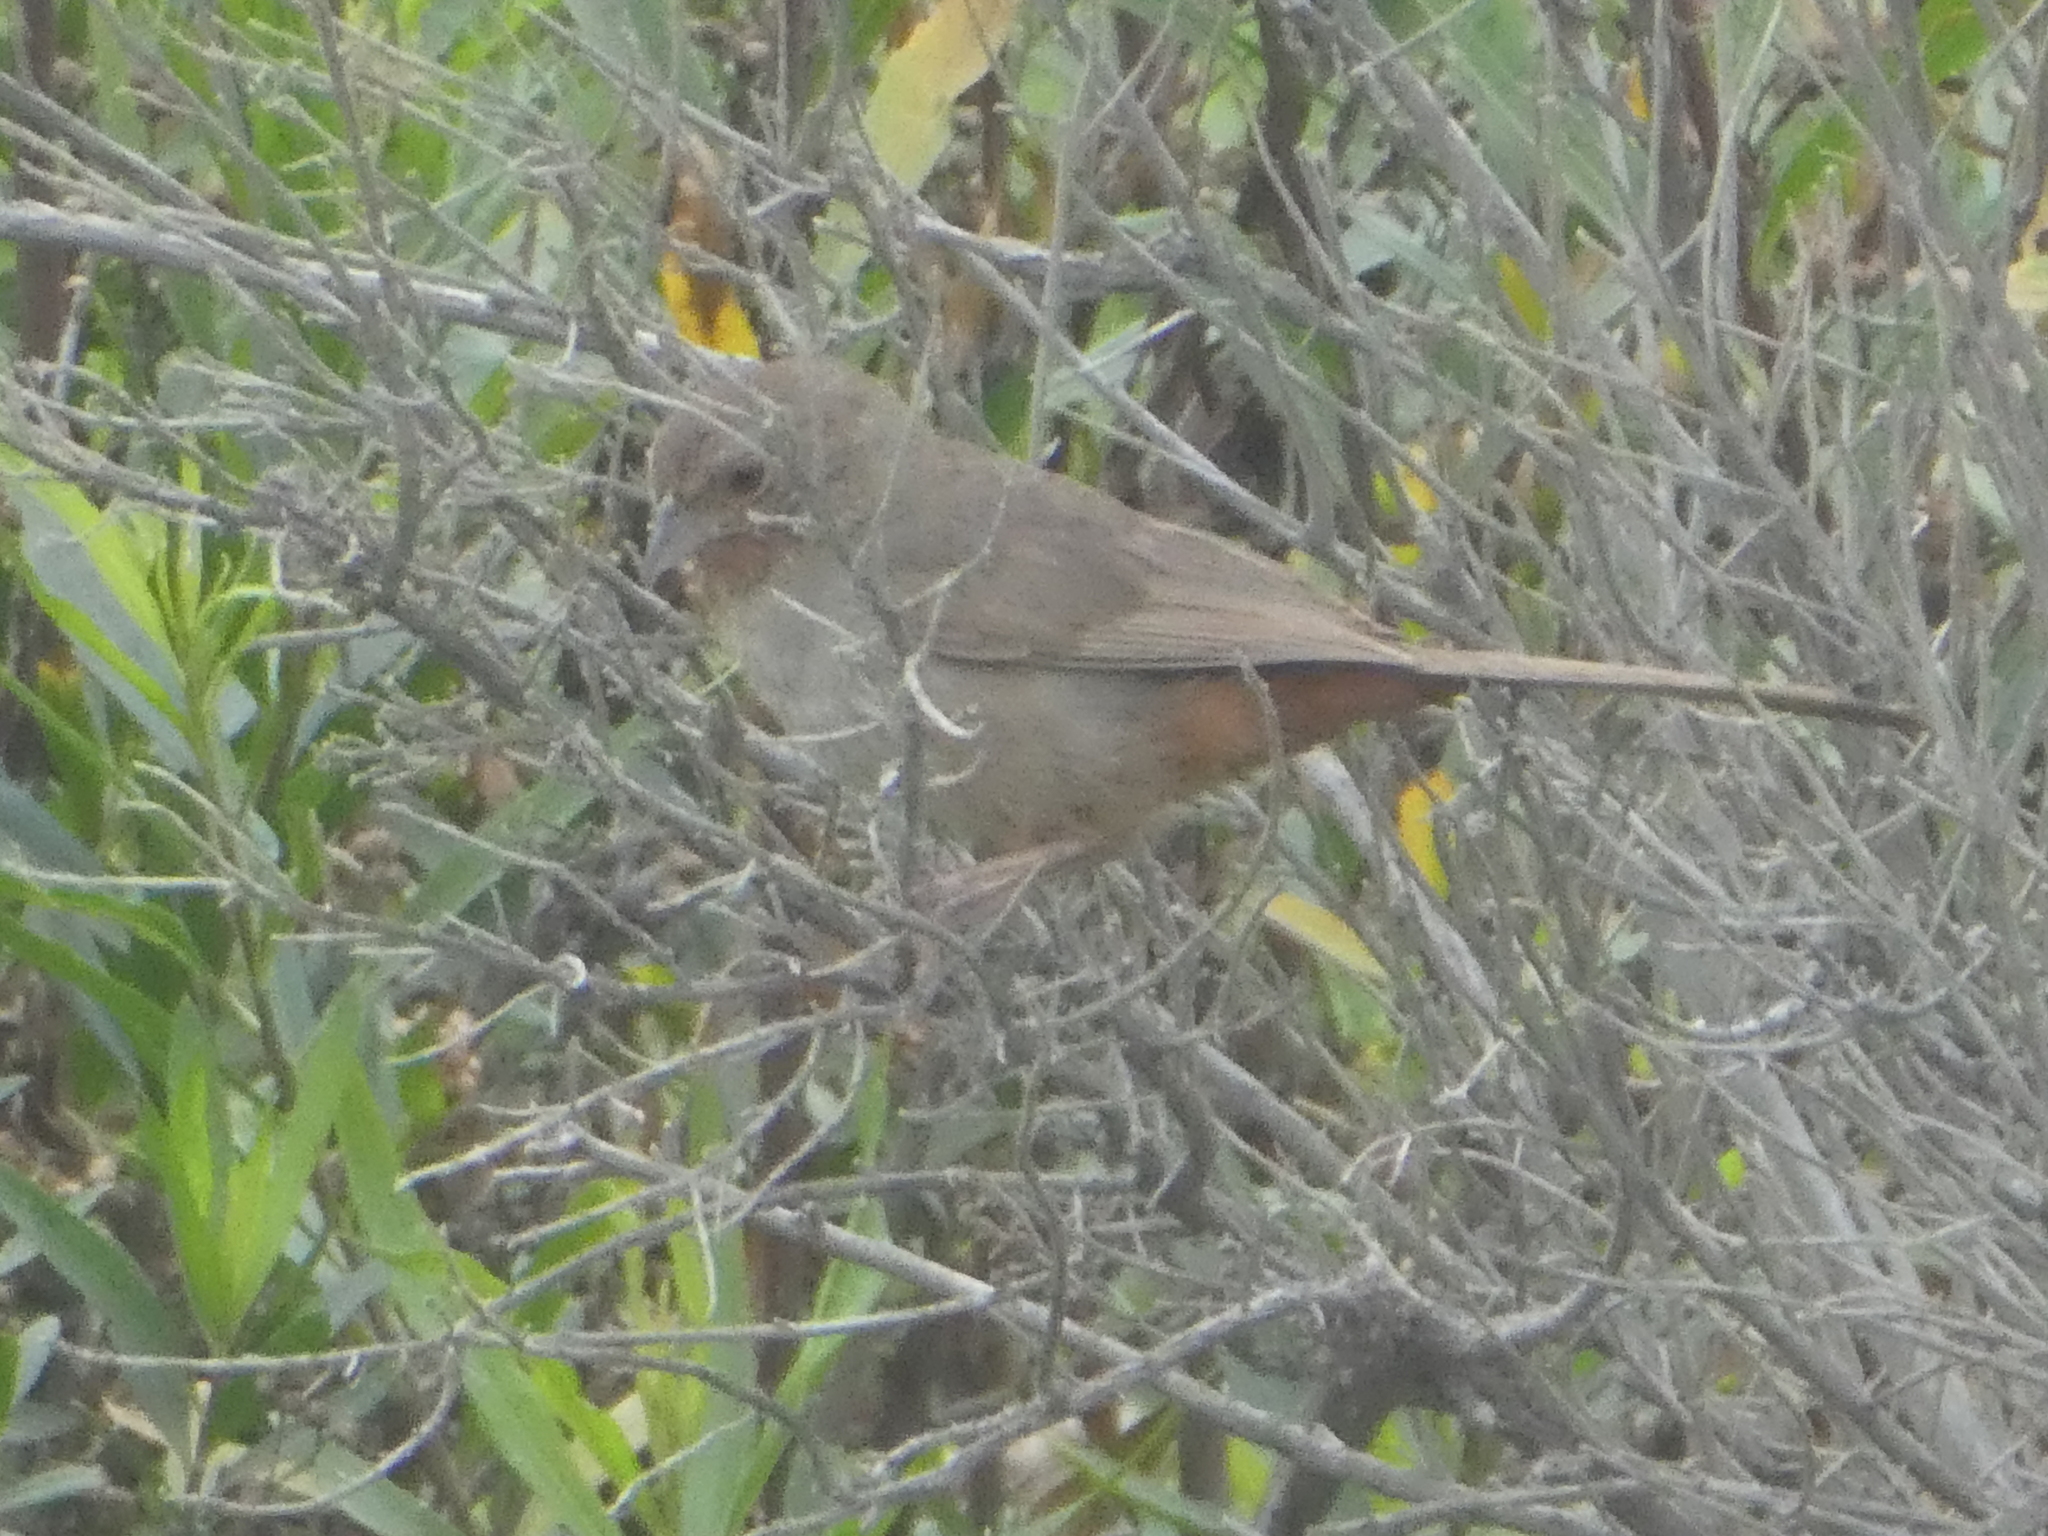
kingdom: Animalia
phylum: Chordata
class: Aves
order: Passeriformes
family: Passerellidae
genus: Melozone
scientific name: Melozone crissalis
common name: California towhee
